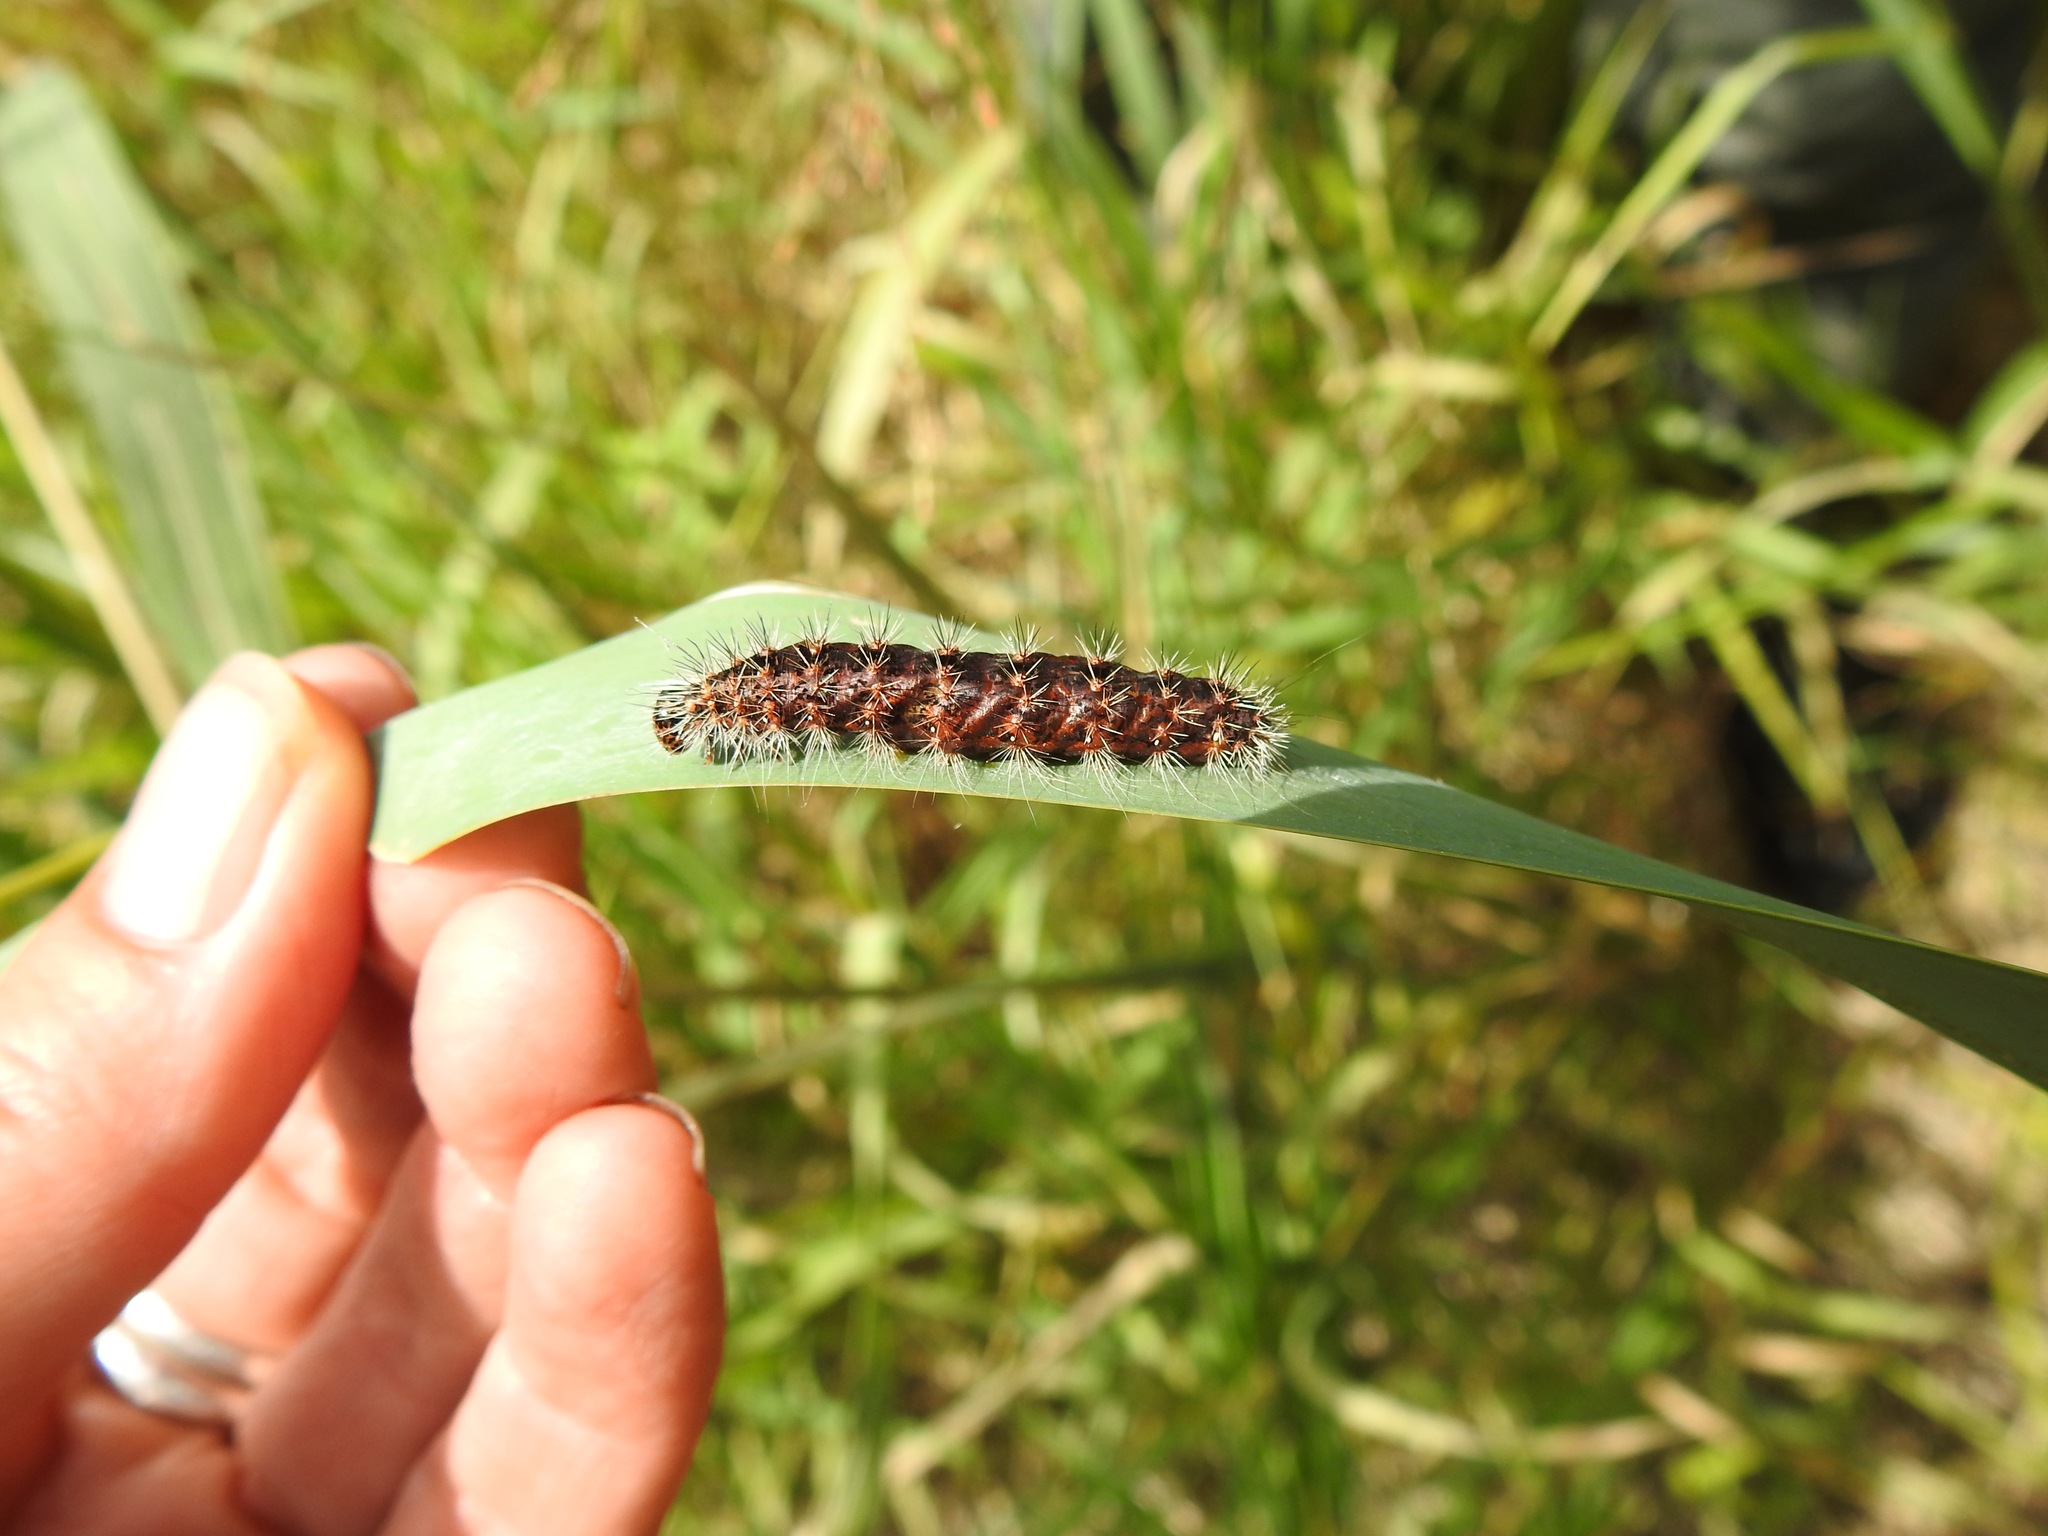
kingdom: Animalia
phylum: Arthropoda
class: Insecta
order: Lepidoptera
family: Noctuidae
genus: Acronicta
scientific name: Acronicta insularis
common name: Henry's marsh moth
